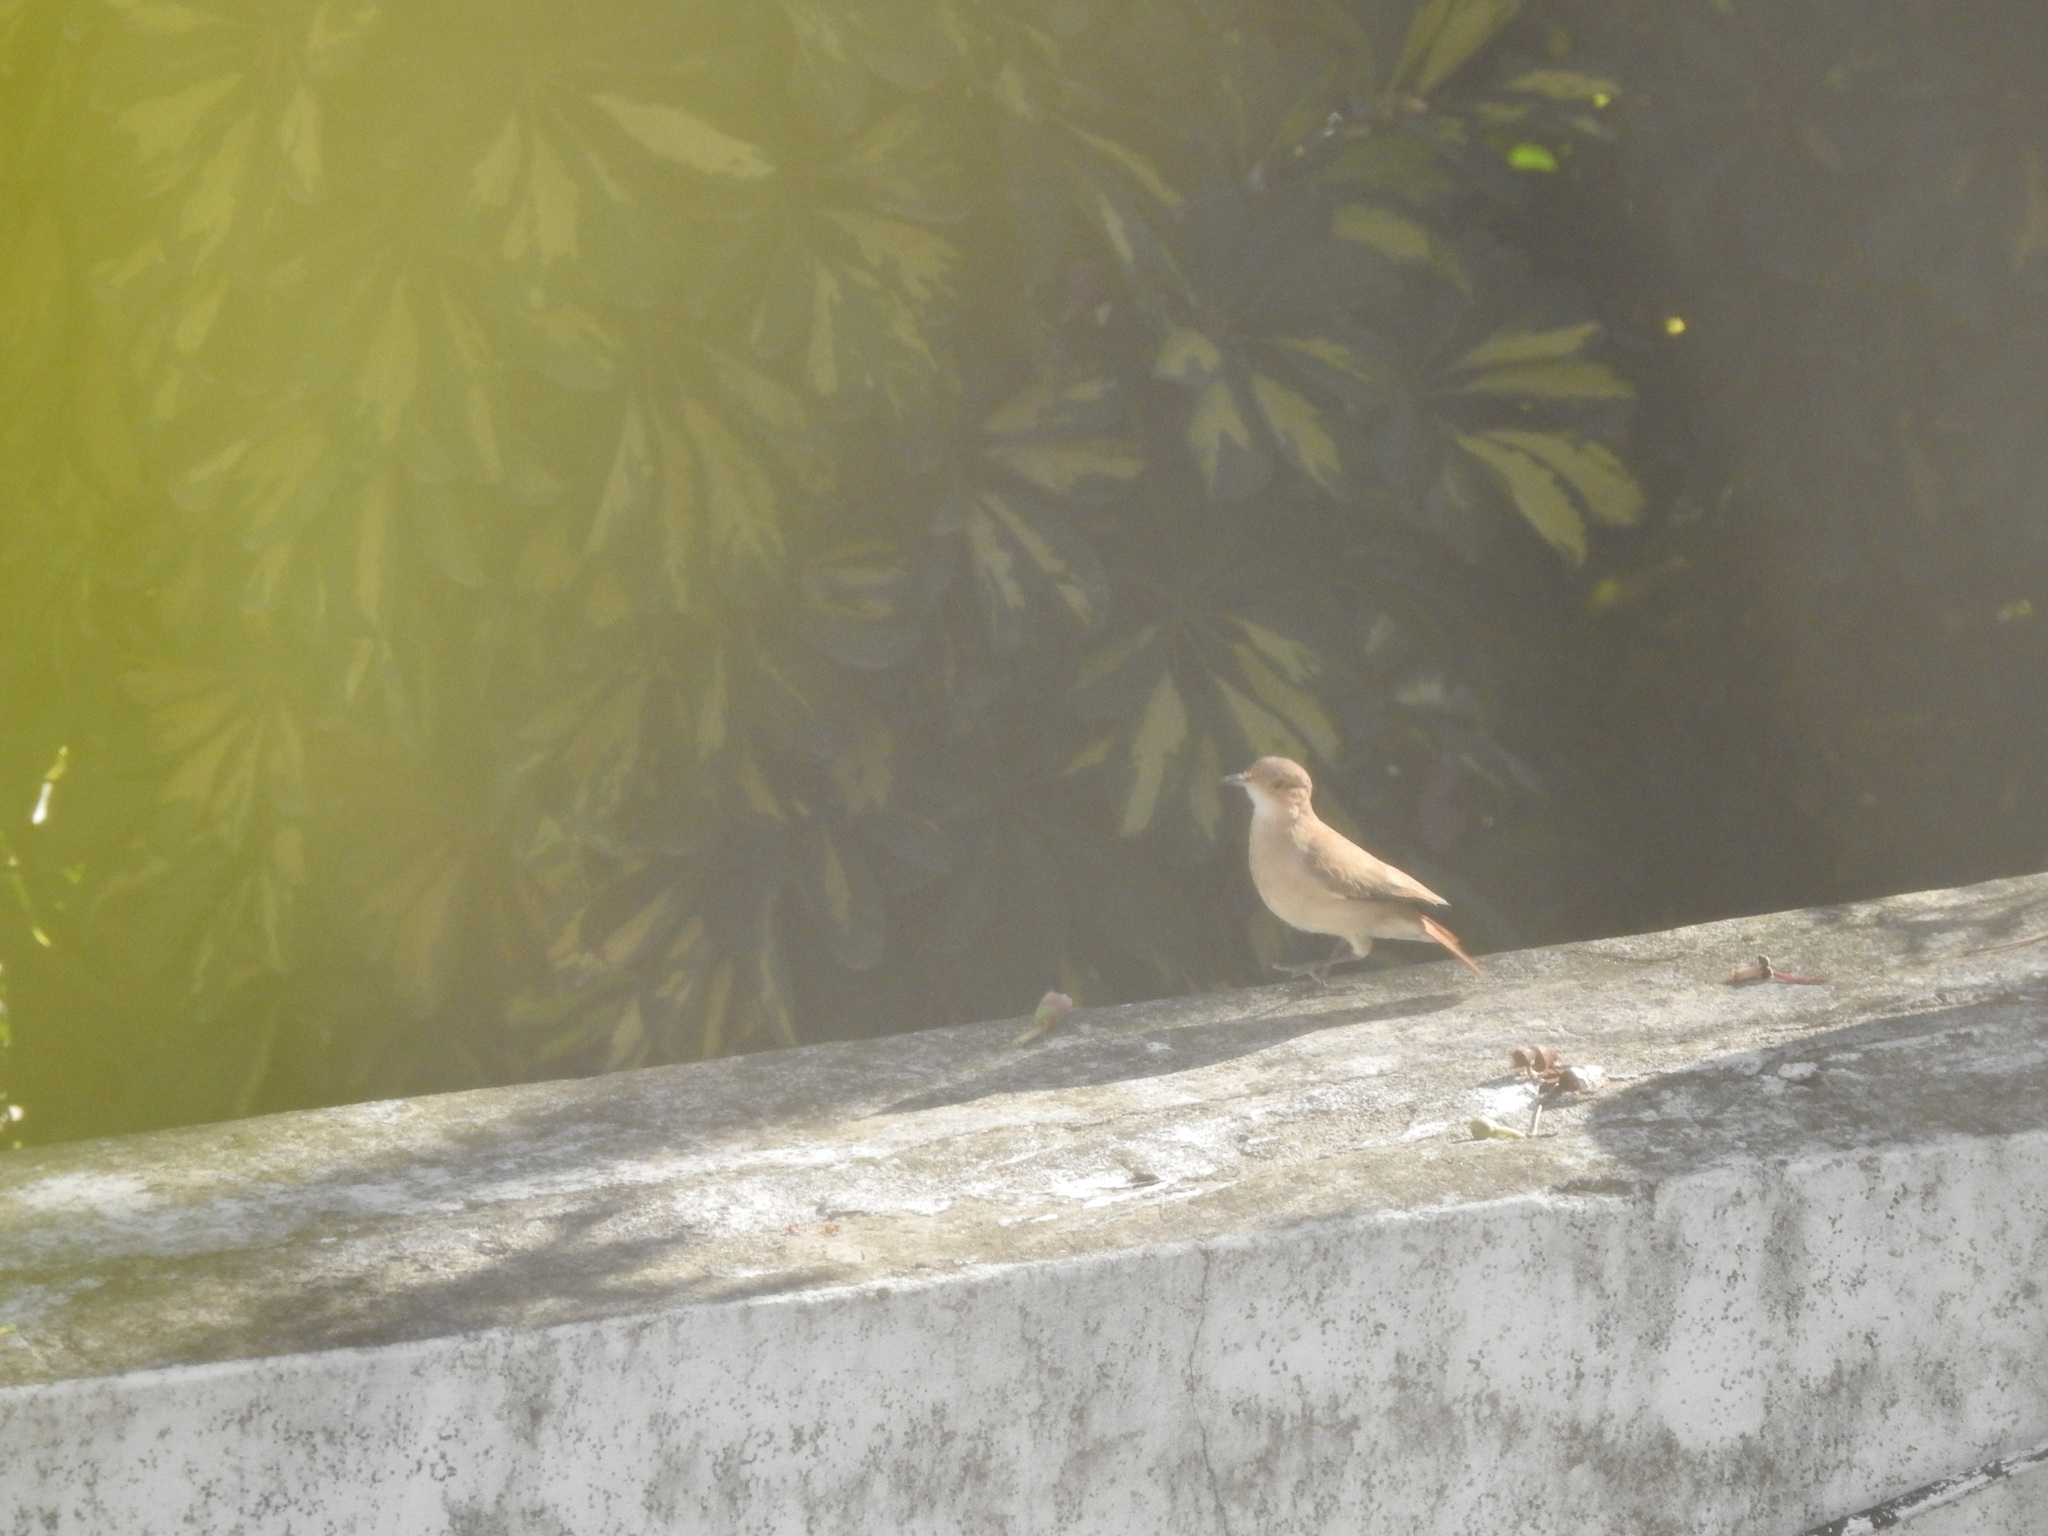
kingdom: Animalia
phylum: Chordata
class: Aves
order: Passeriformes
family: Furnariidae
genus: Furnarius
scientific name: Furnarius rufus
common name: Rufous hornero
